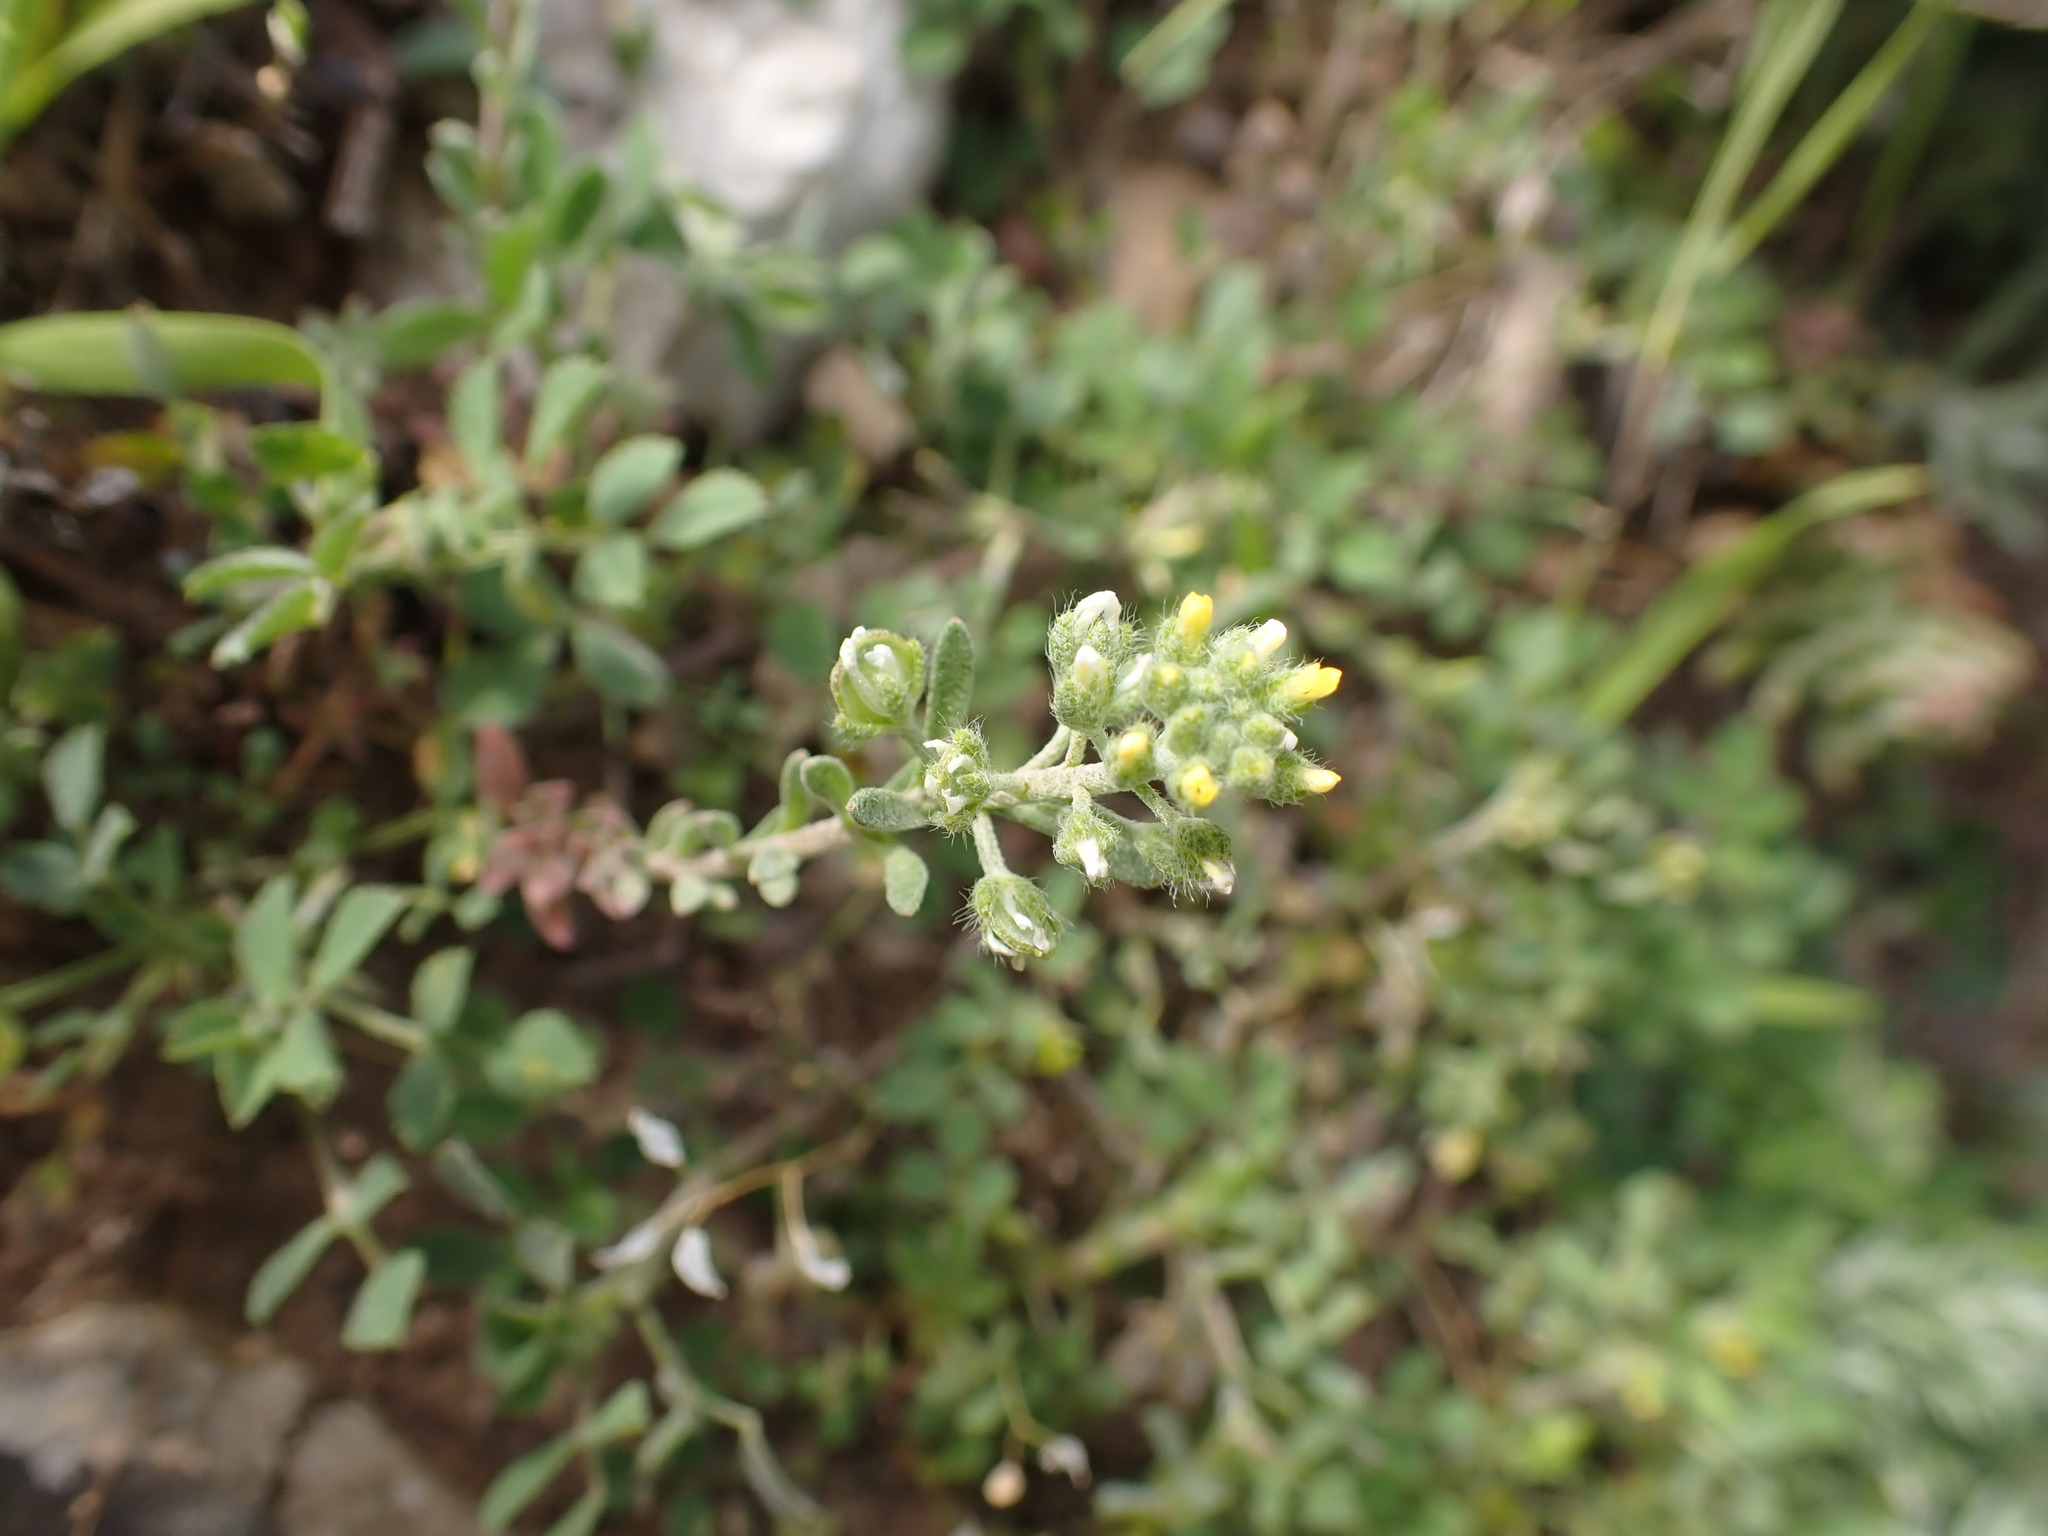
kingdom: Plantae
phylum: Tracheophyta
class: Magnoliopsida
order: Brassicales
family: Brassicaceae
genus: Alyssum
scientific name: Alyssum alyssoides
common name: Small alison
